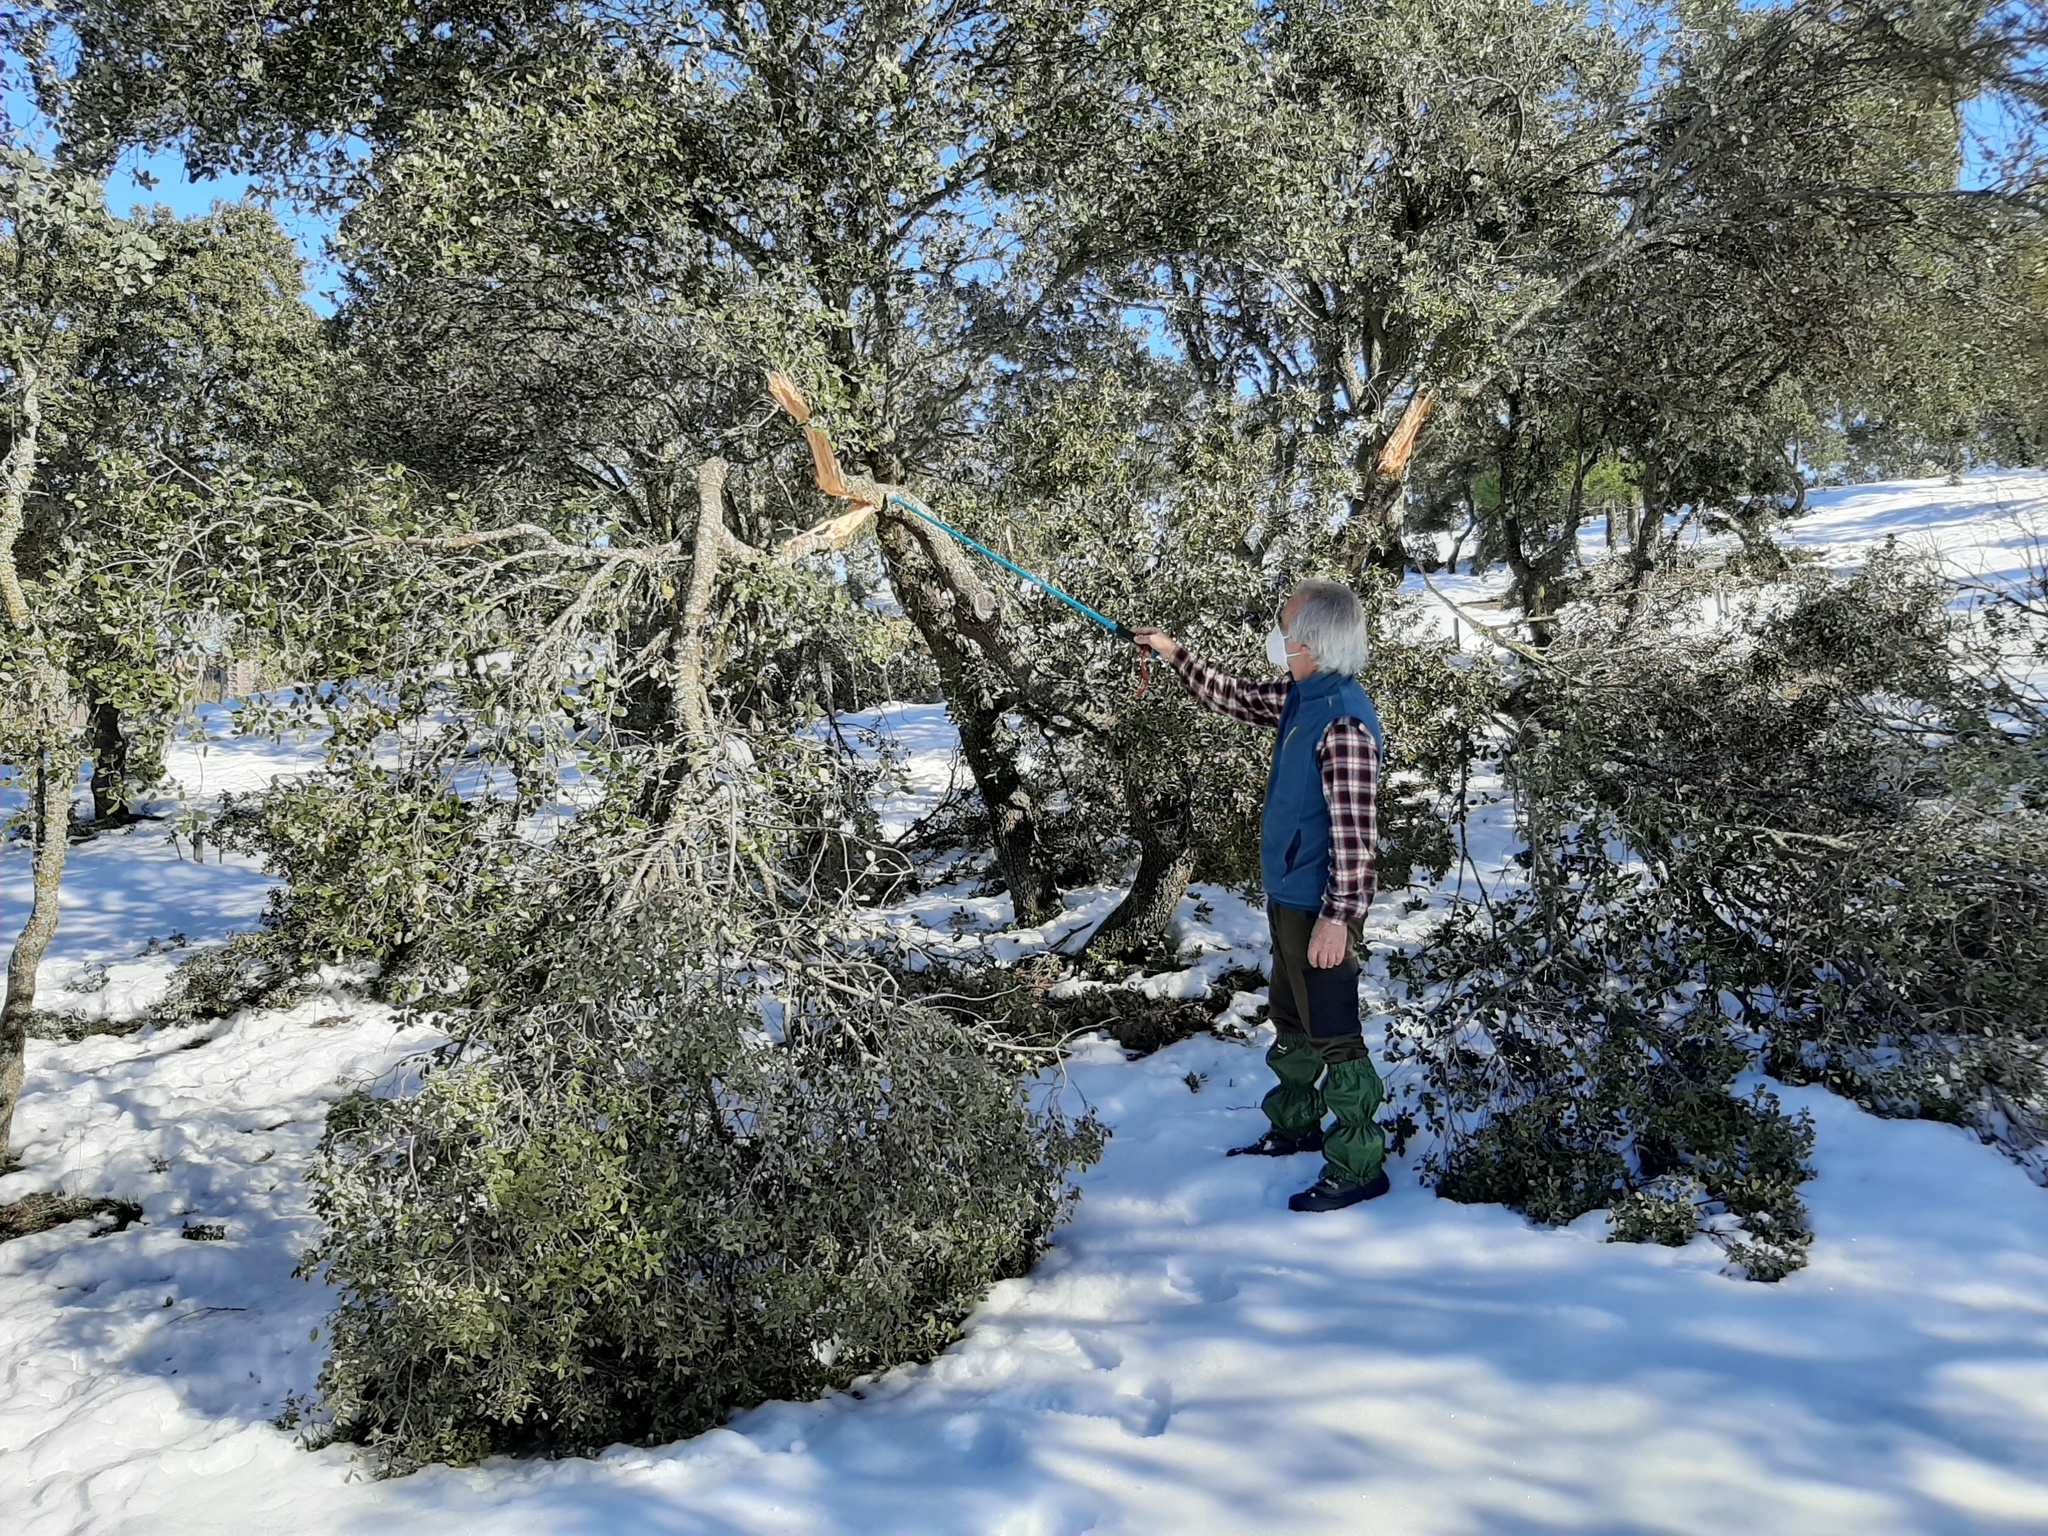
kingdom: Plantae
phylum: Tracheophyta
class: Magnoliopsida
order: Fagales
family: Fagaceae
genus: Quercus
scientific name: Quercus rotundifolia
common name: Holm oak
